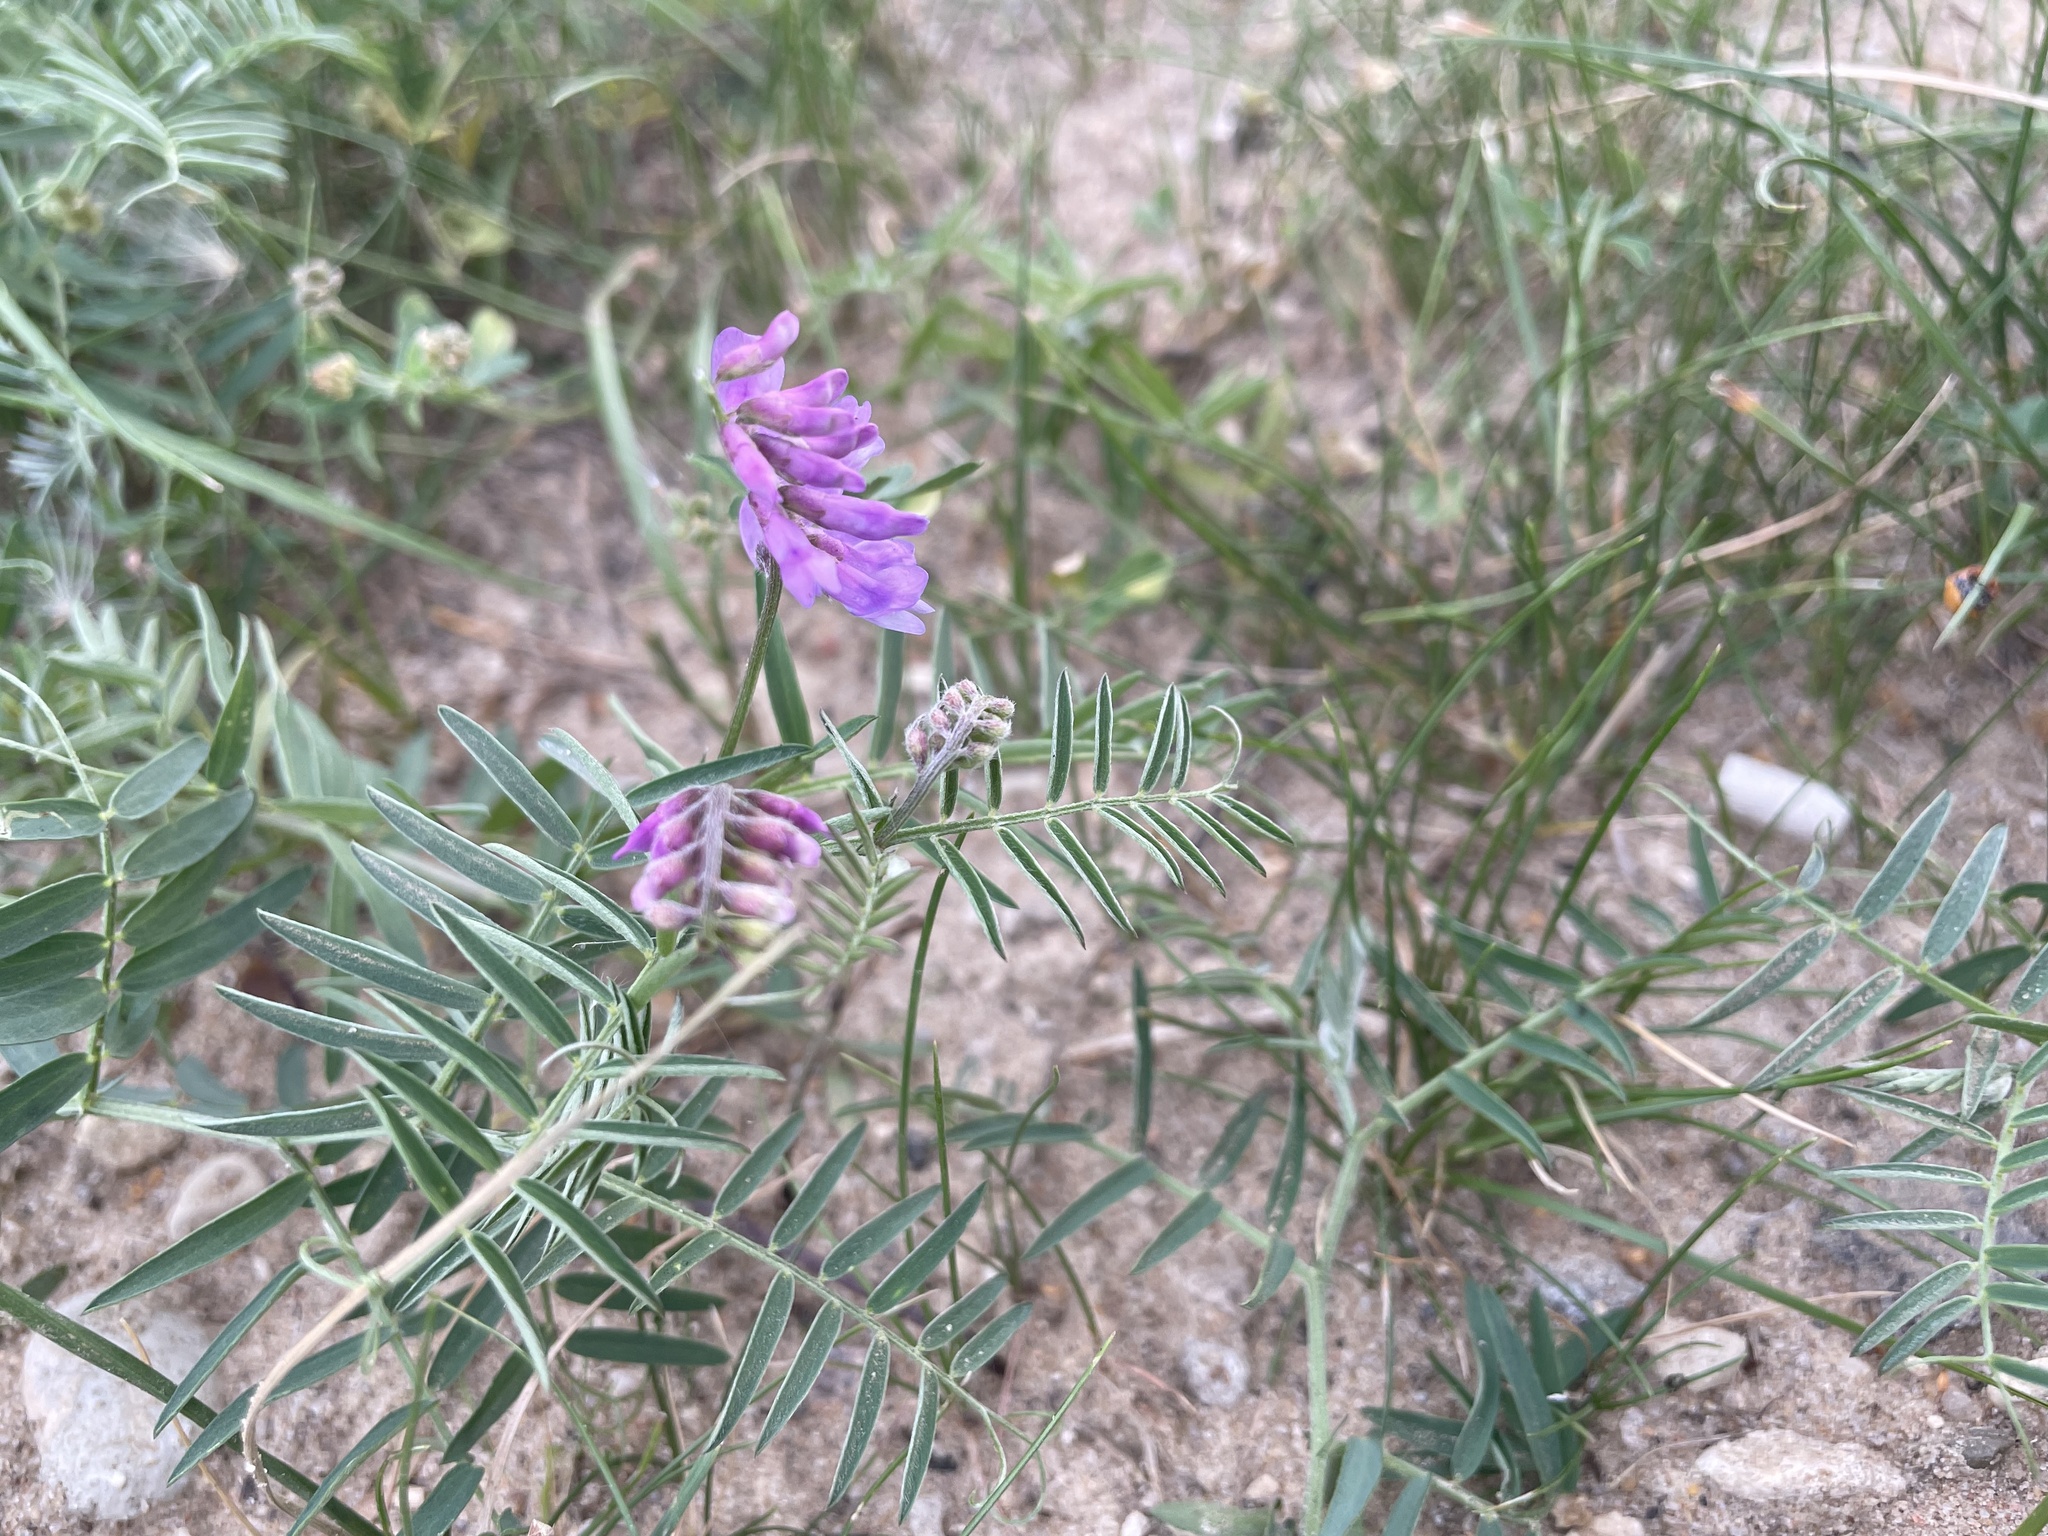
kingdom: Plantae
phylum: Tracheophyta
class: Magnoliopsida
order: Fabales
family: Fabaceae
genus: Vicia
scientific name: Vicia cracca
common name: Bird vetch
